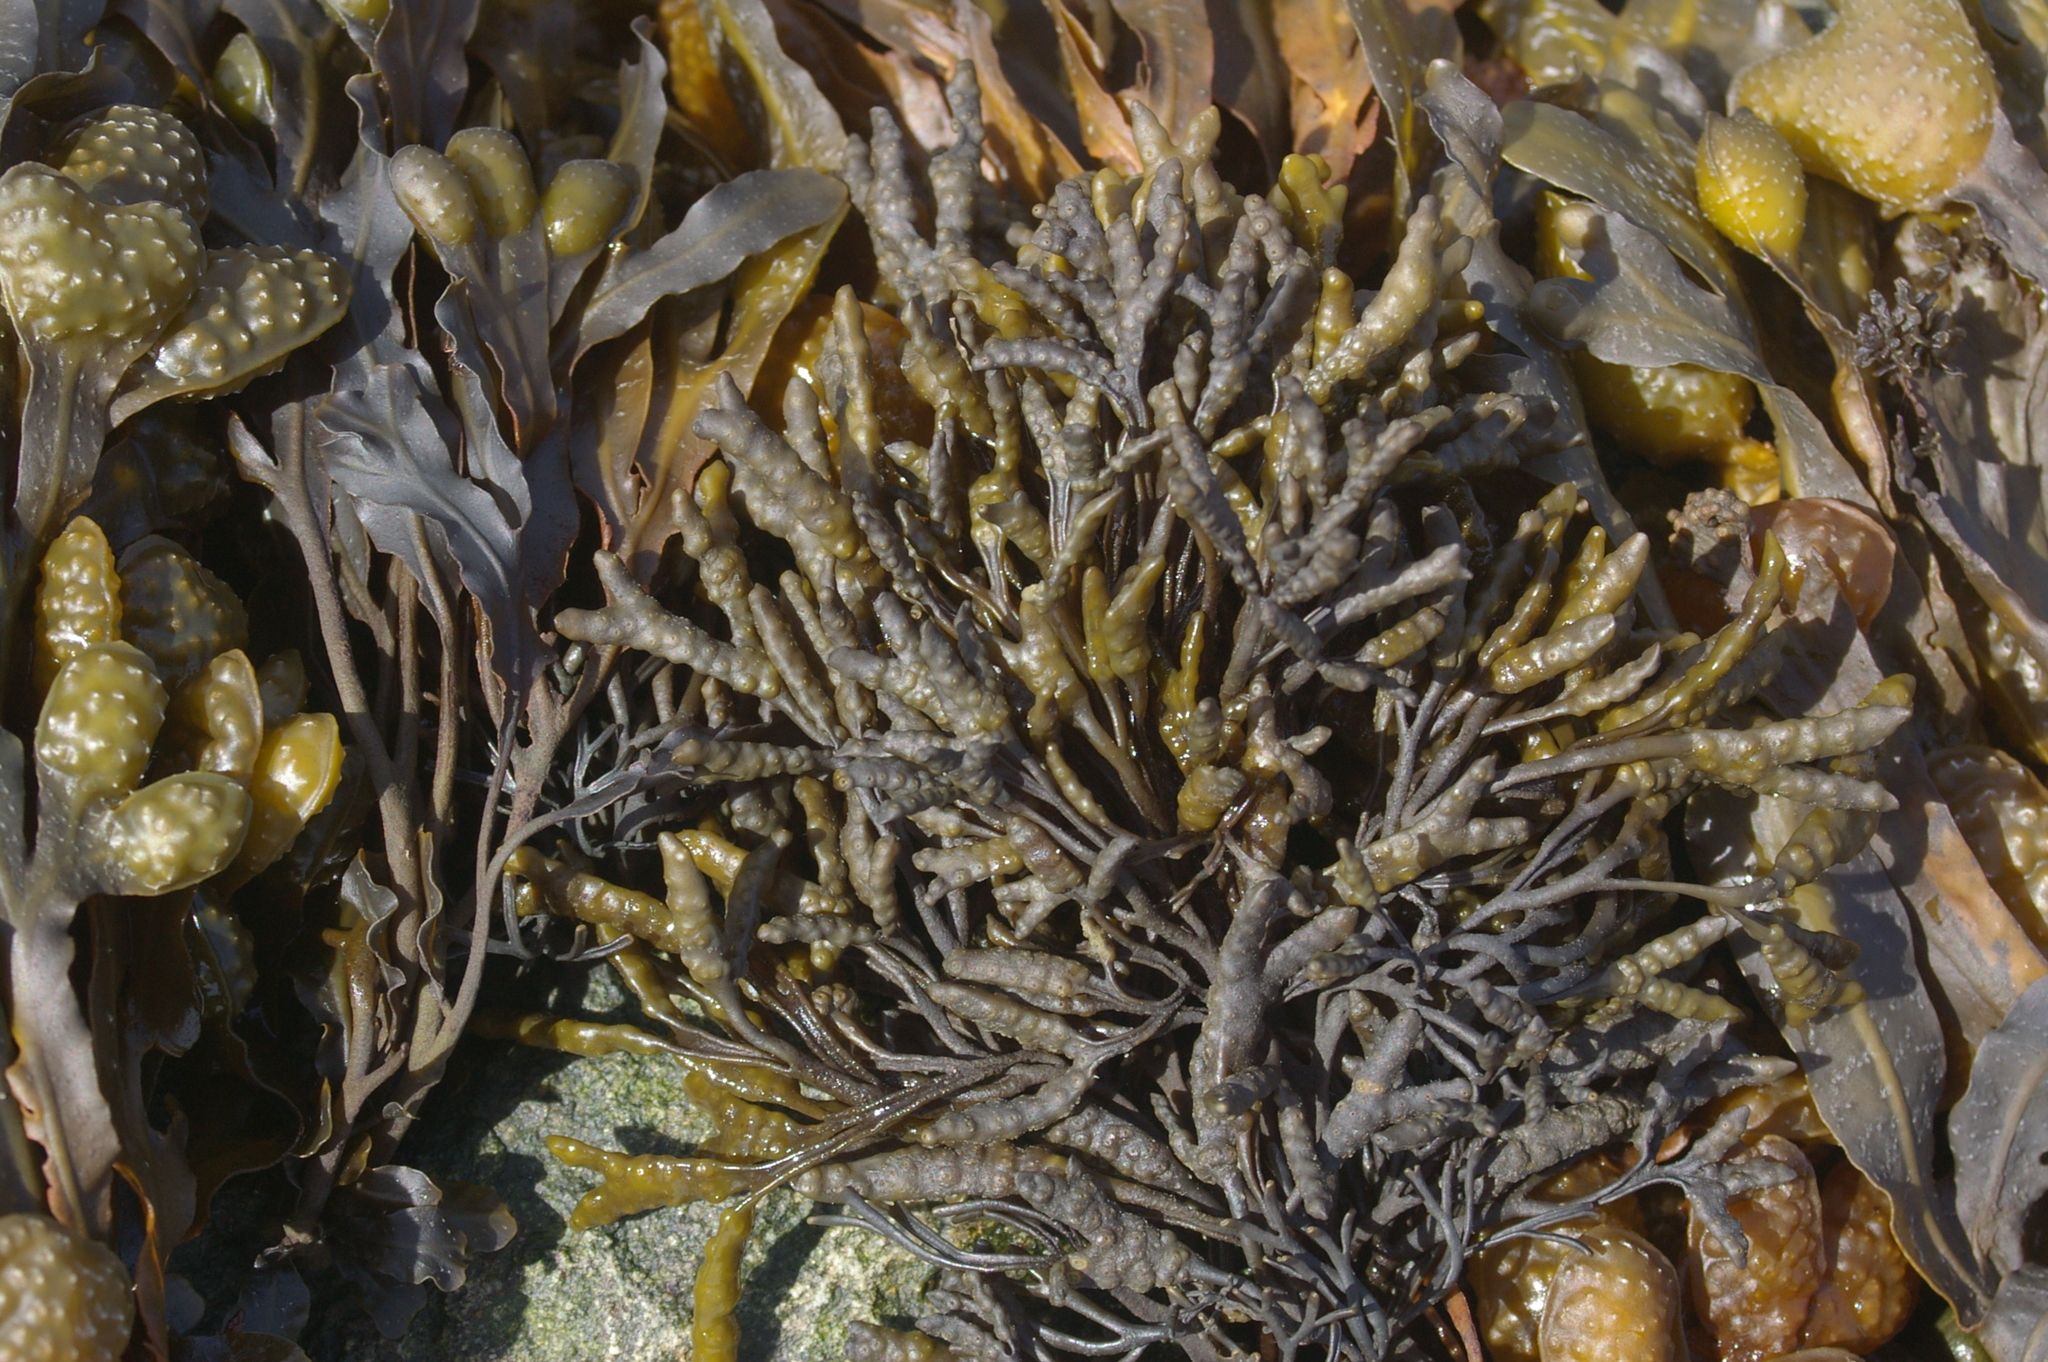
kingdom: Chromista
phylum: Ochrophyta
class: Phaeophyceae
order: Fucales
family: Fucaceae
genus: Pelvetia
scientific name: Pelvetia canaliculata
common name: Channelled wrack
